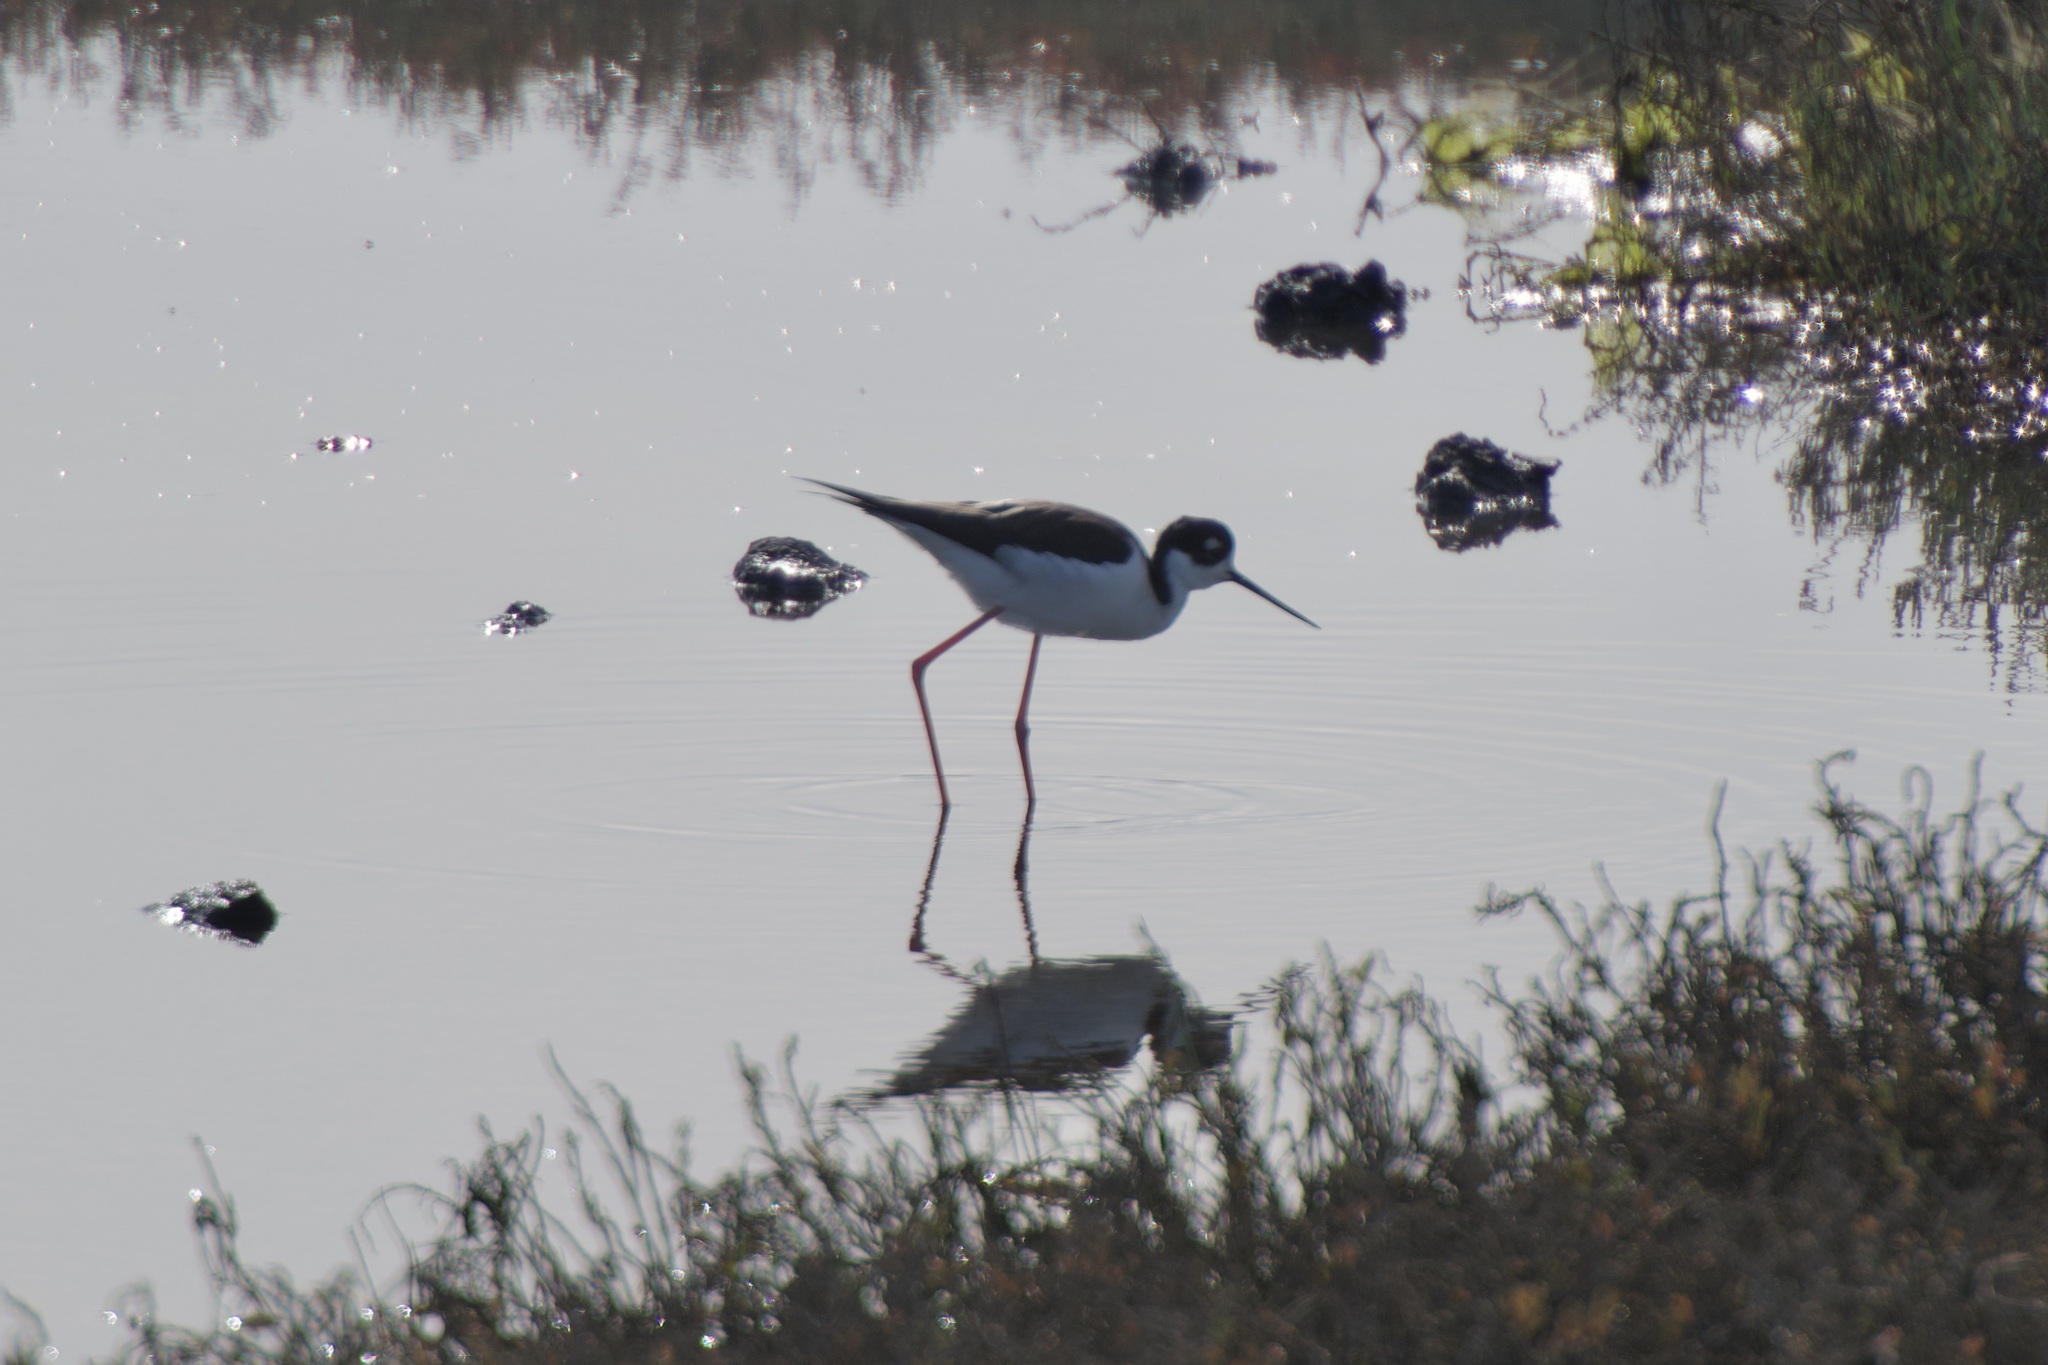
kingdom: Animalia
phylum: Chordata
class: Aves
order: Charadriiformes
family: Recurvirostridae
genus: Himantopus
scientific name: Himantopus mexicanus
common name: Black-necked stilt
